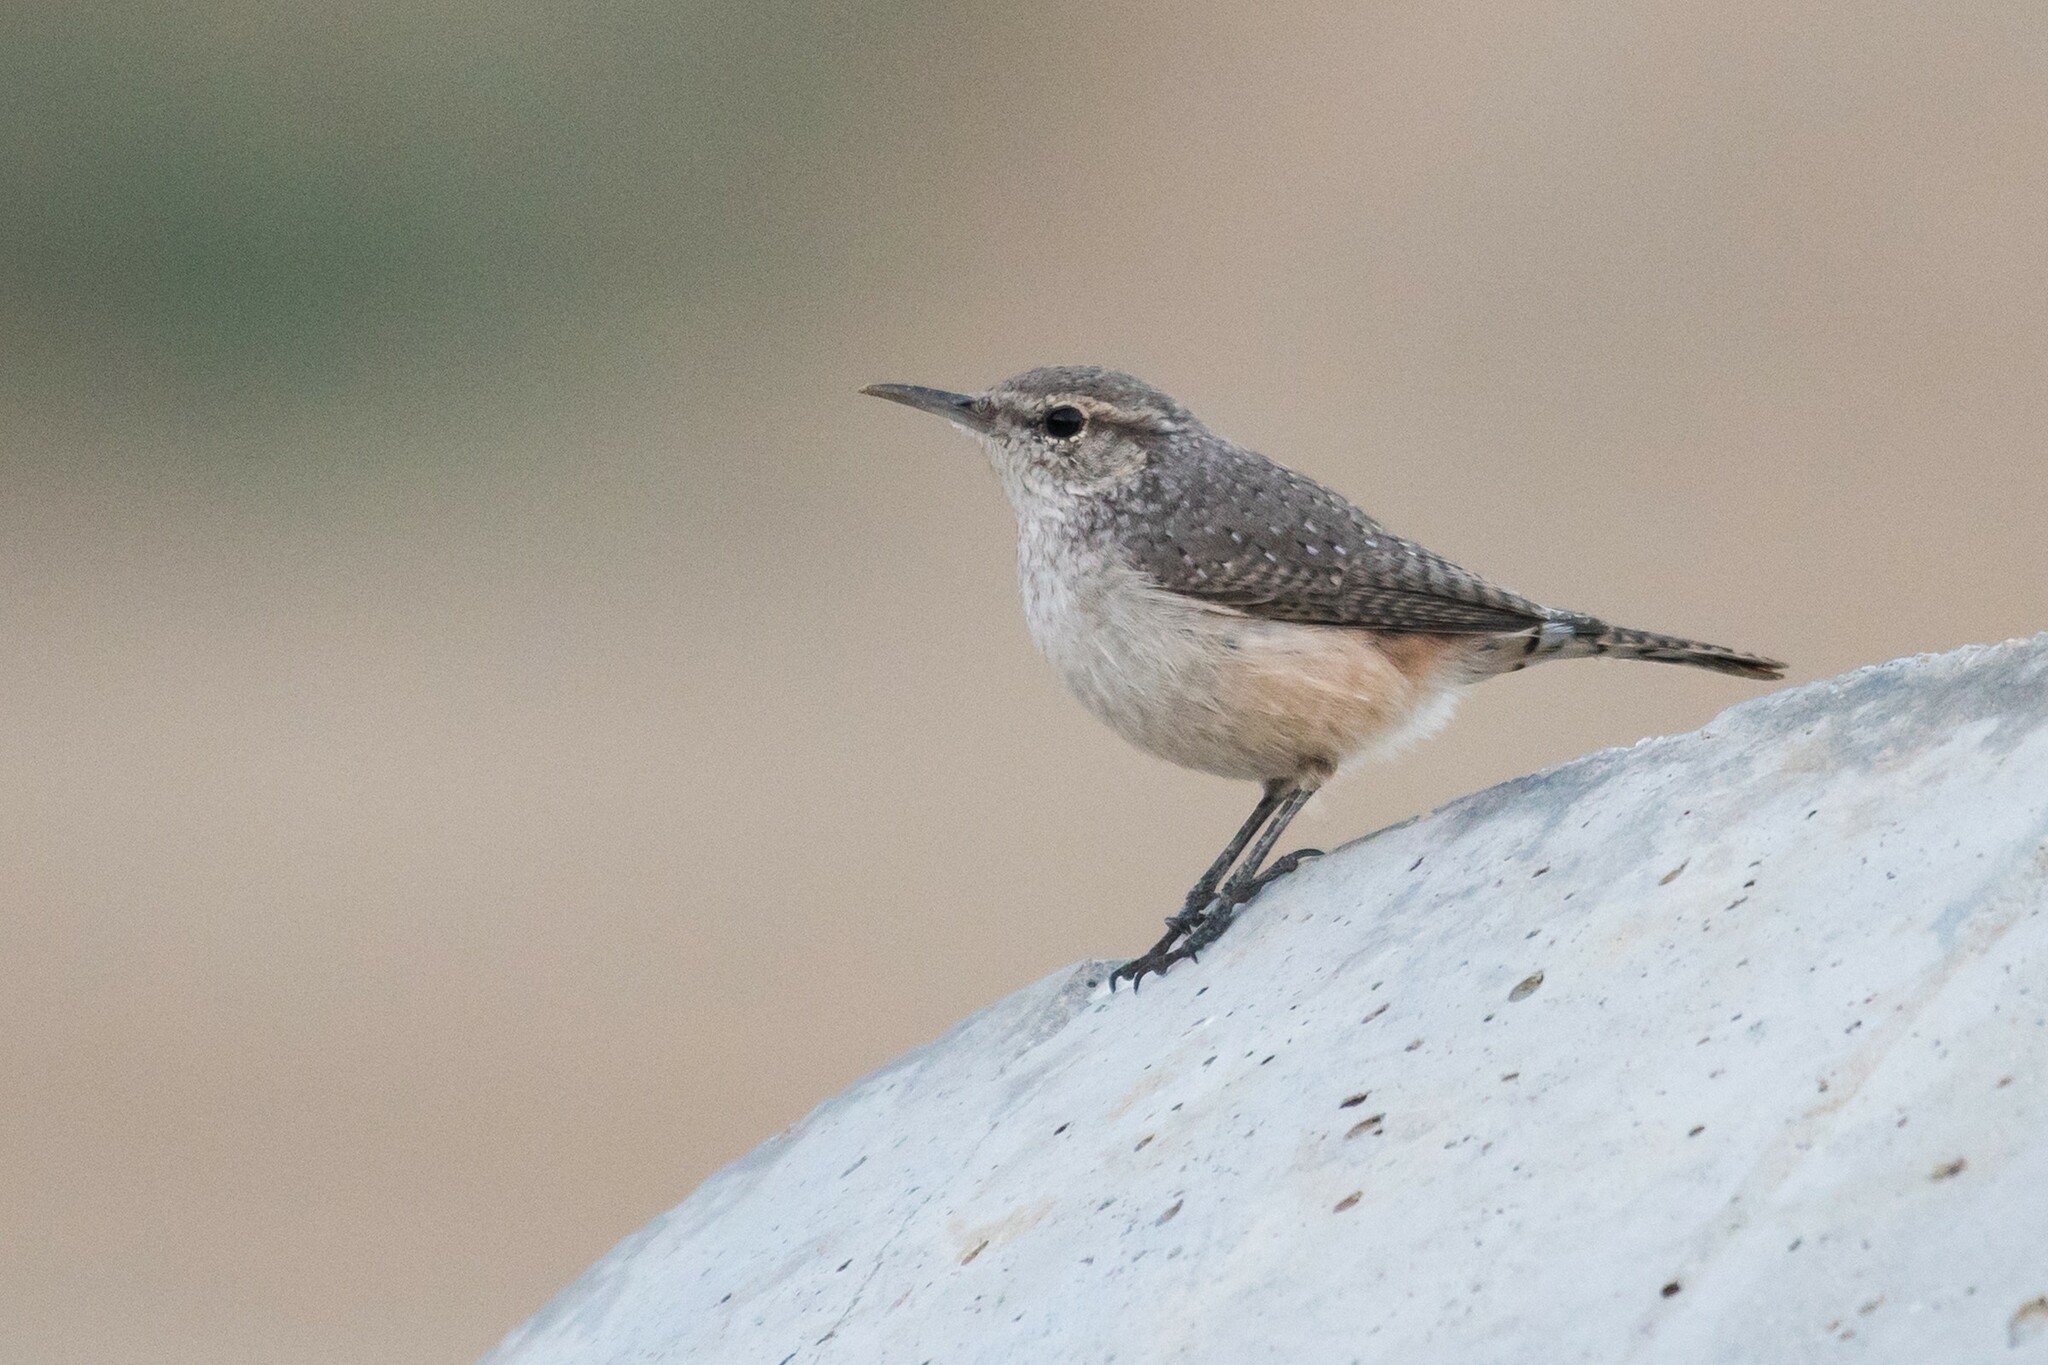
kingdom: Animalia
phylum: Chordata
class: Aves
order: Passeriformes
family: Troglodytidae
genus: Salpinctes
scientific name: Salpinctes obsoletus
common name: Rock wren
